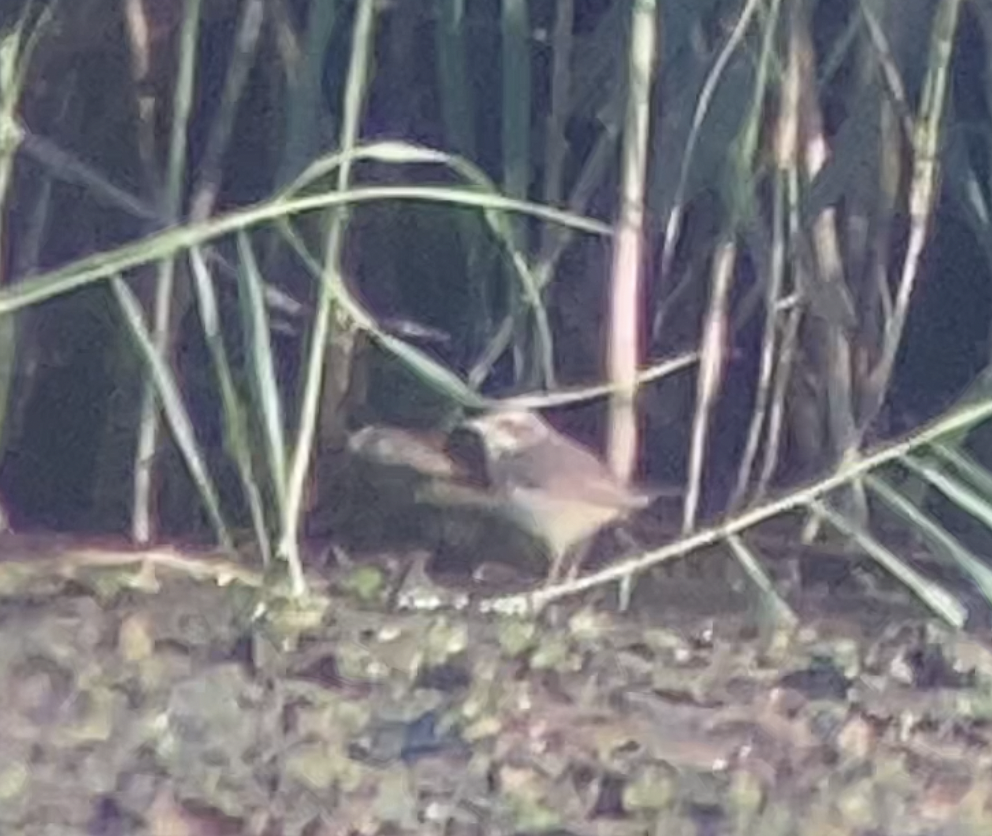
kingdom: Animalia
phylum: Chordata
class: Aves
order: Passeriformes
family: Muscicapidae
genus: Luscinia
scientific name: Luscinia svecica
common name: Bluethroat
